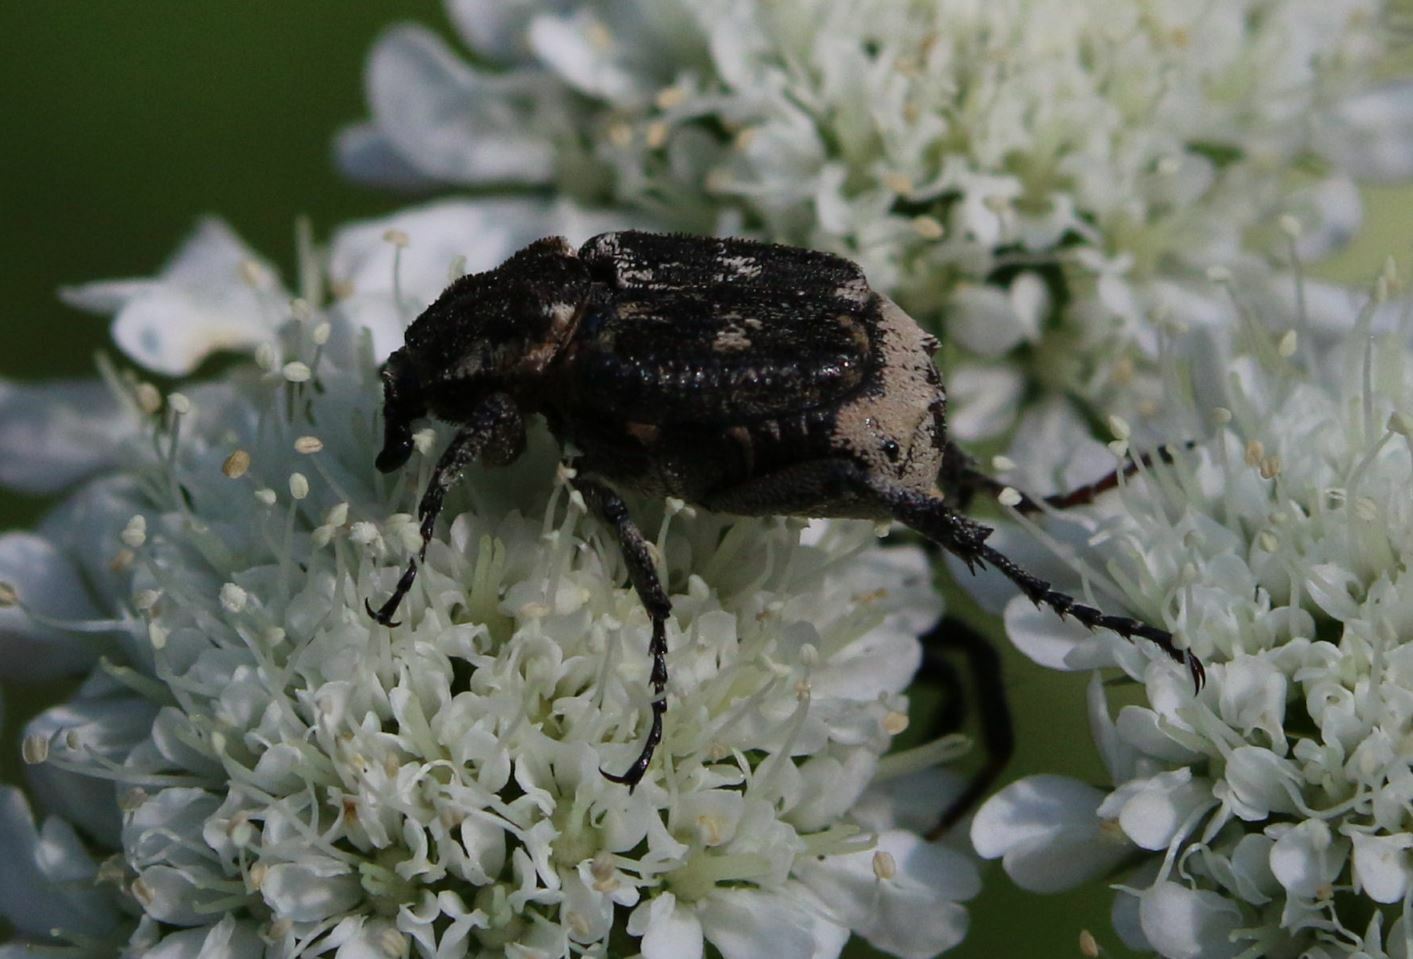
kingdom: Animalia
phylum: Arthropoda
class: Insecta
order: Coleoptera
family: Scarabaeidae
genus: Valgus
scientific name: Valgus hemipterus
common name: Bug flower chafer
